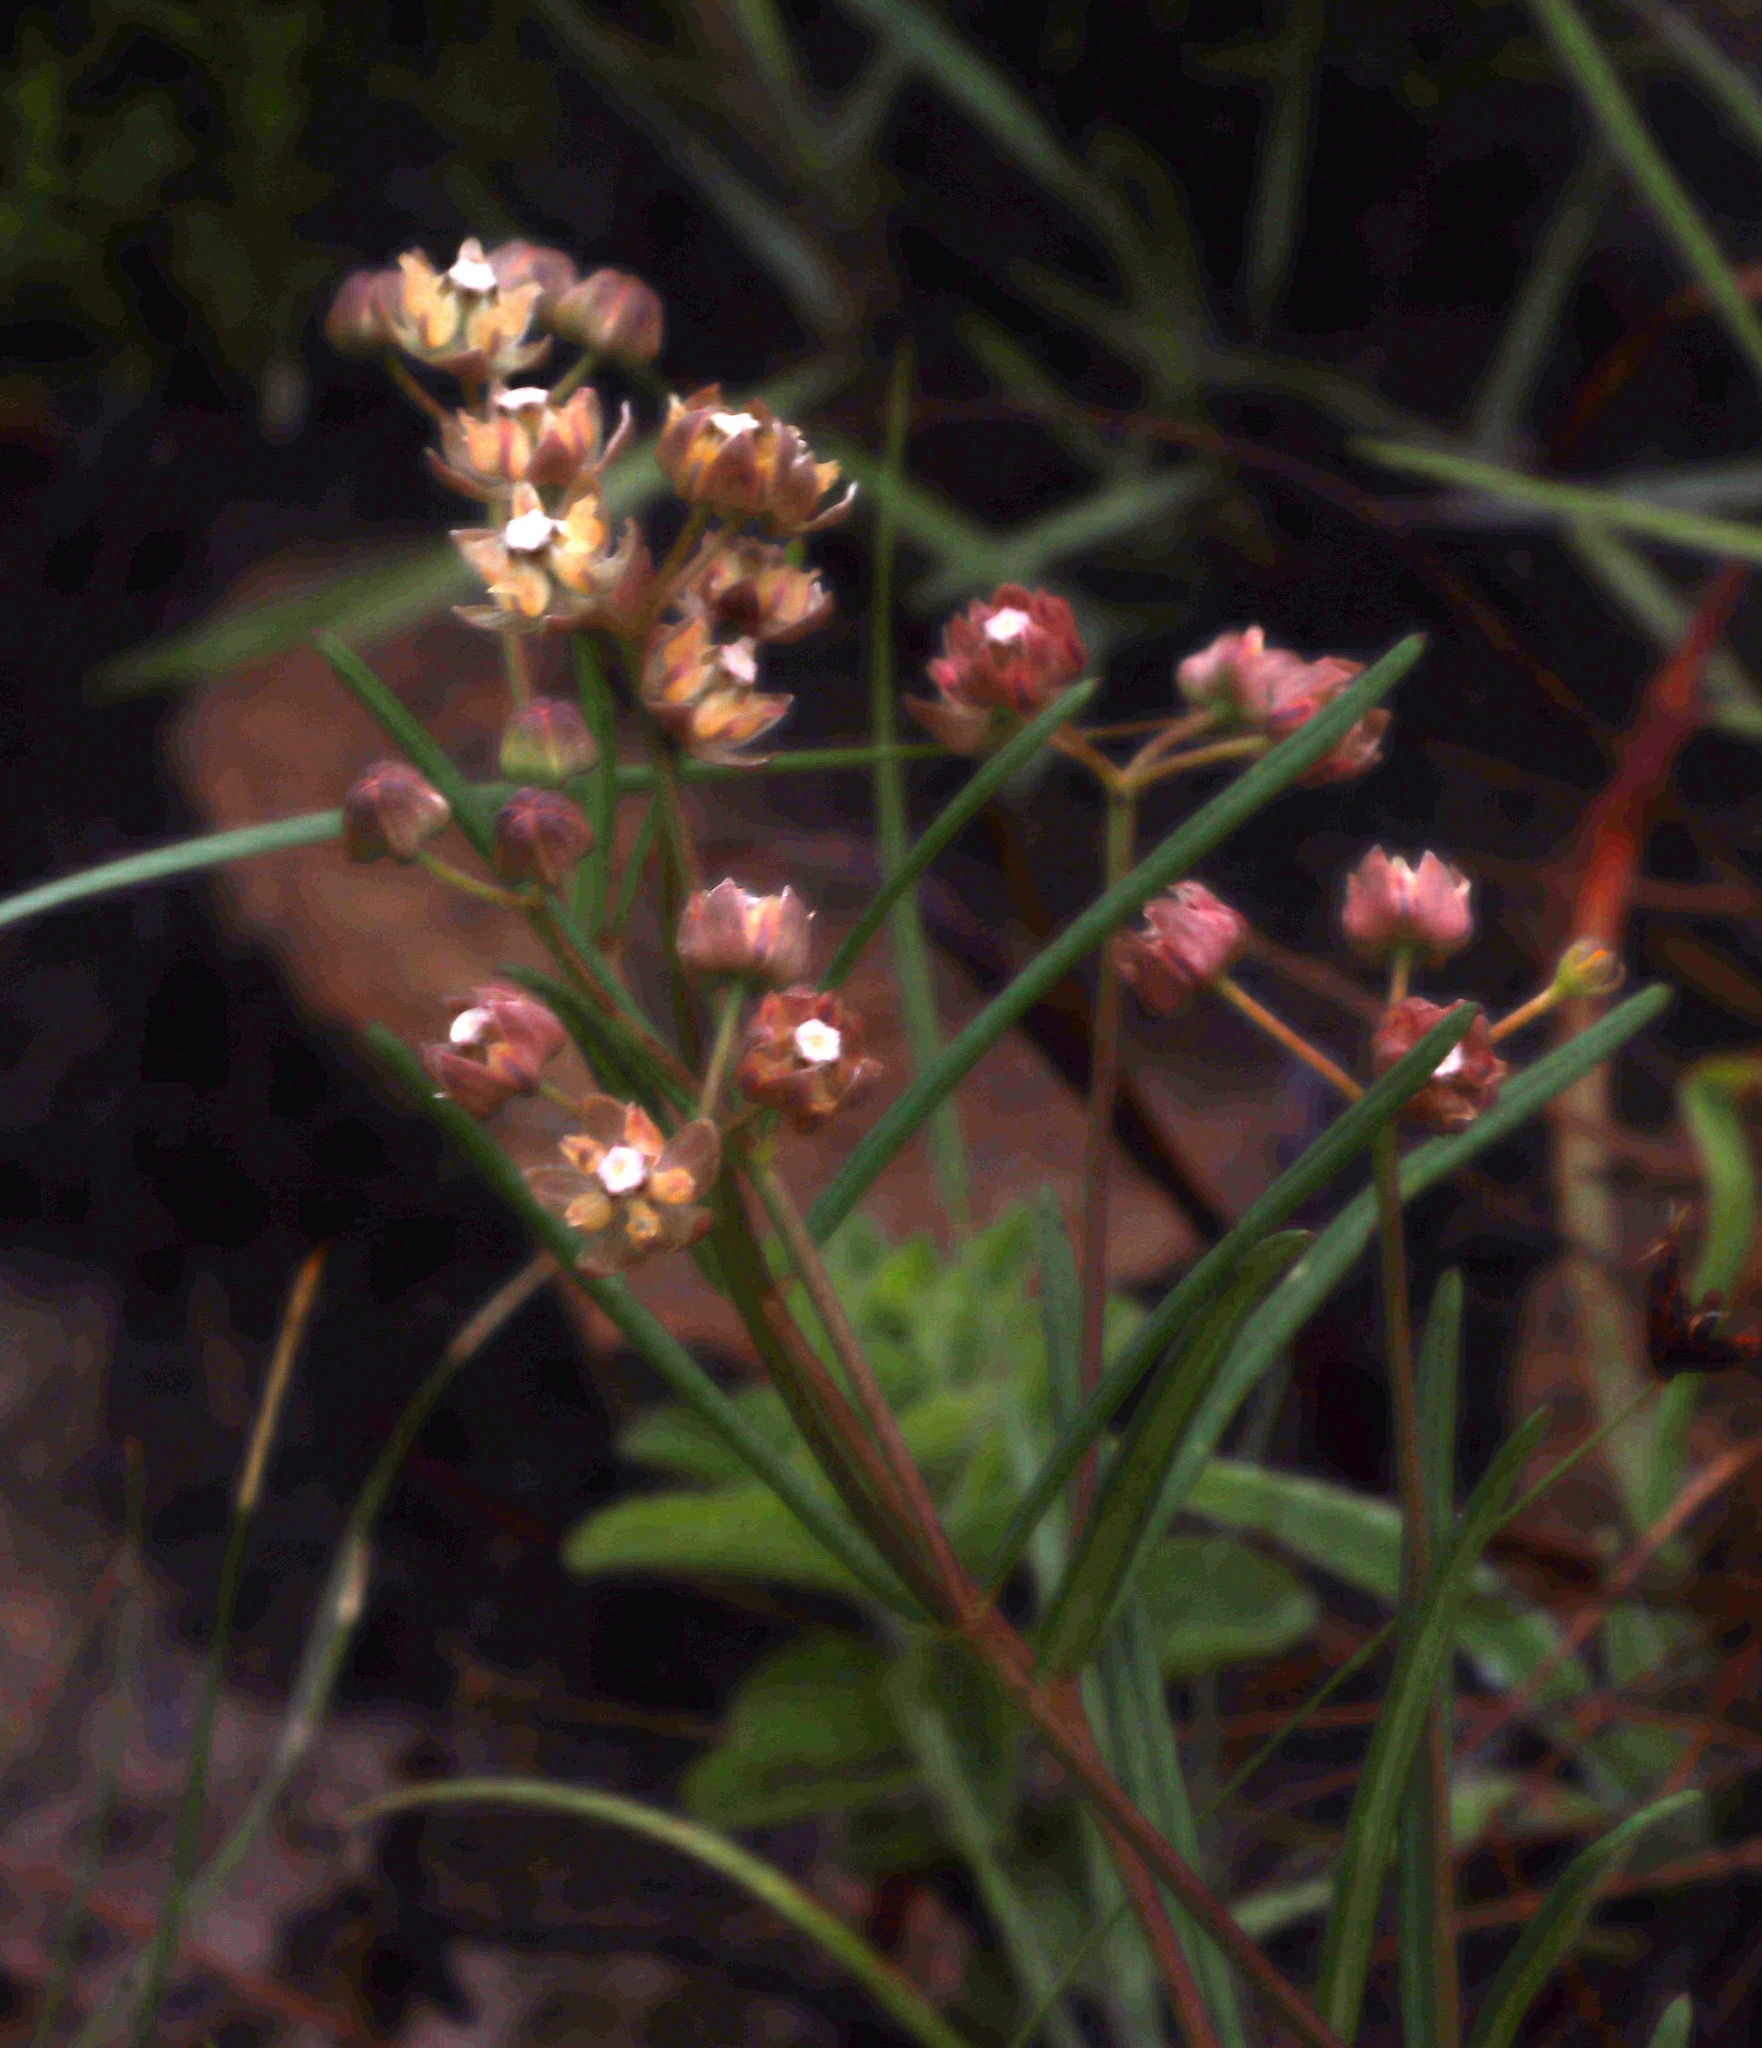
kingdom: Plantae
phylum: Tracheophyta
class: Magnoliopsida
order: Gentianales
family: Apocynaceae
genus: Asclepias
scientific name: Asclepias cucullata
